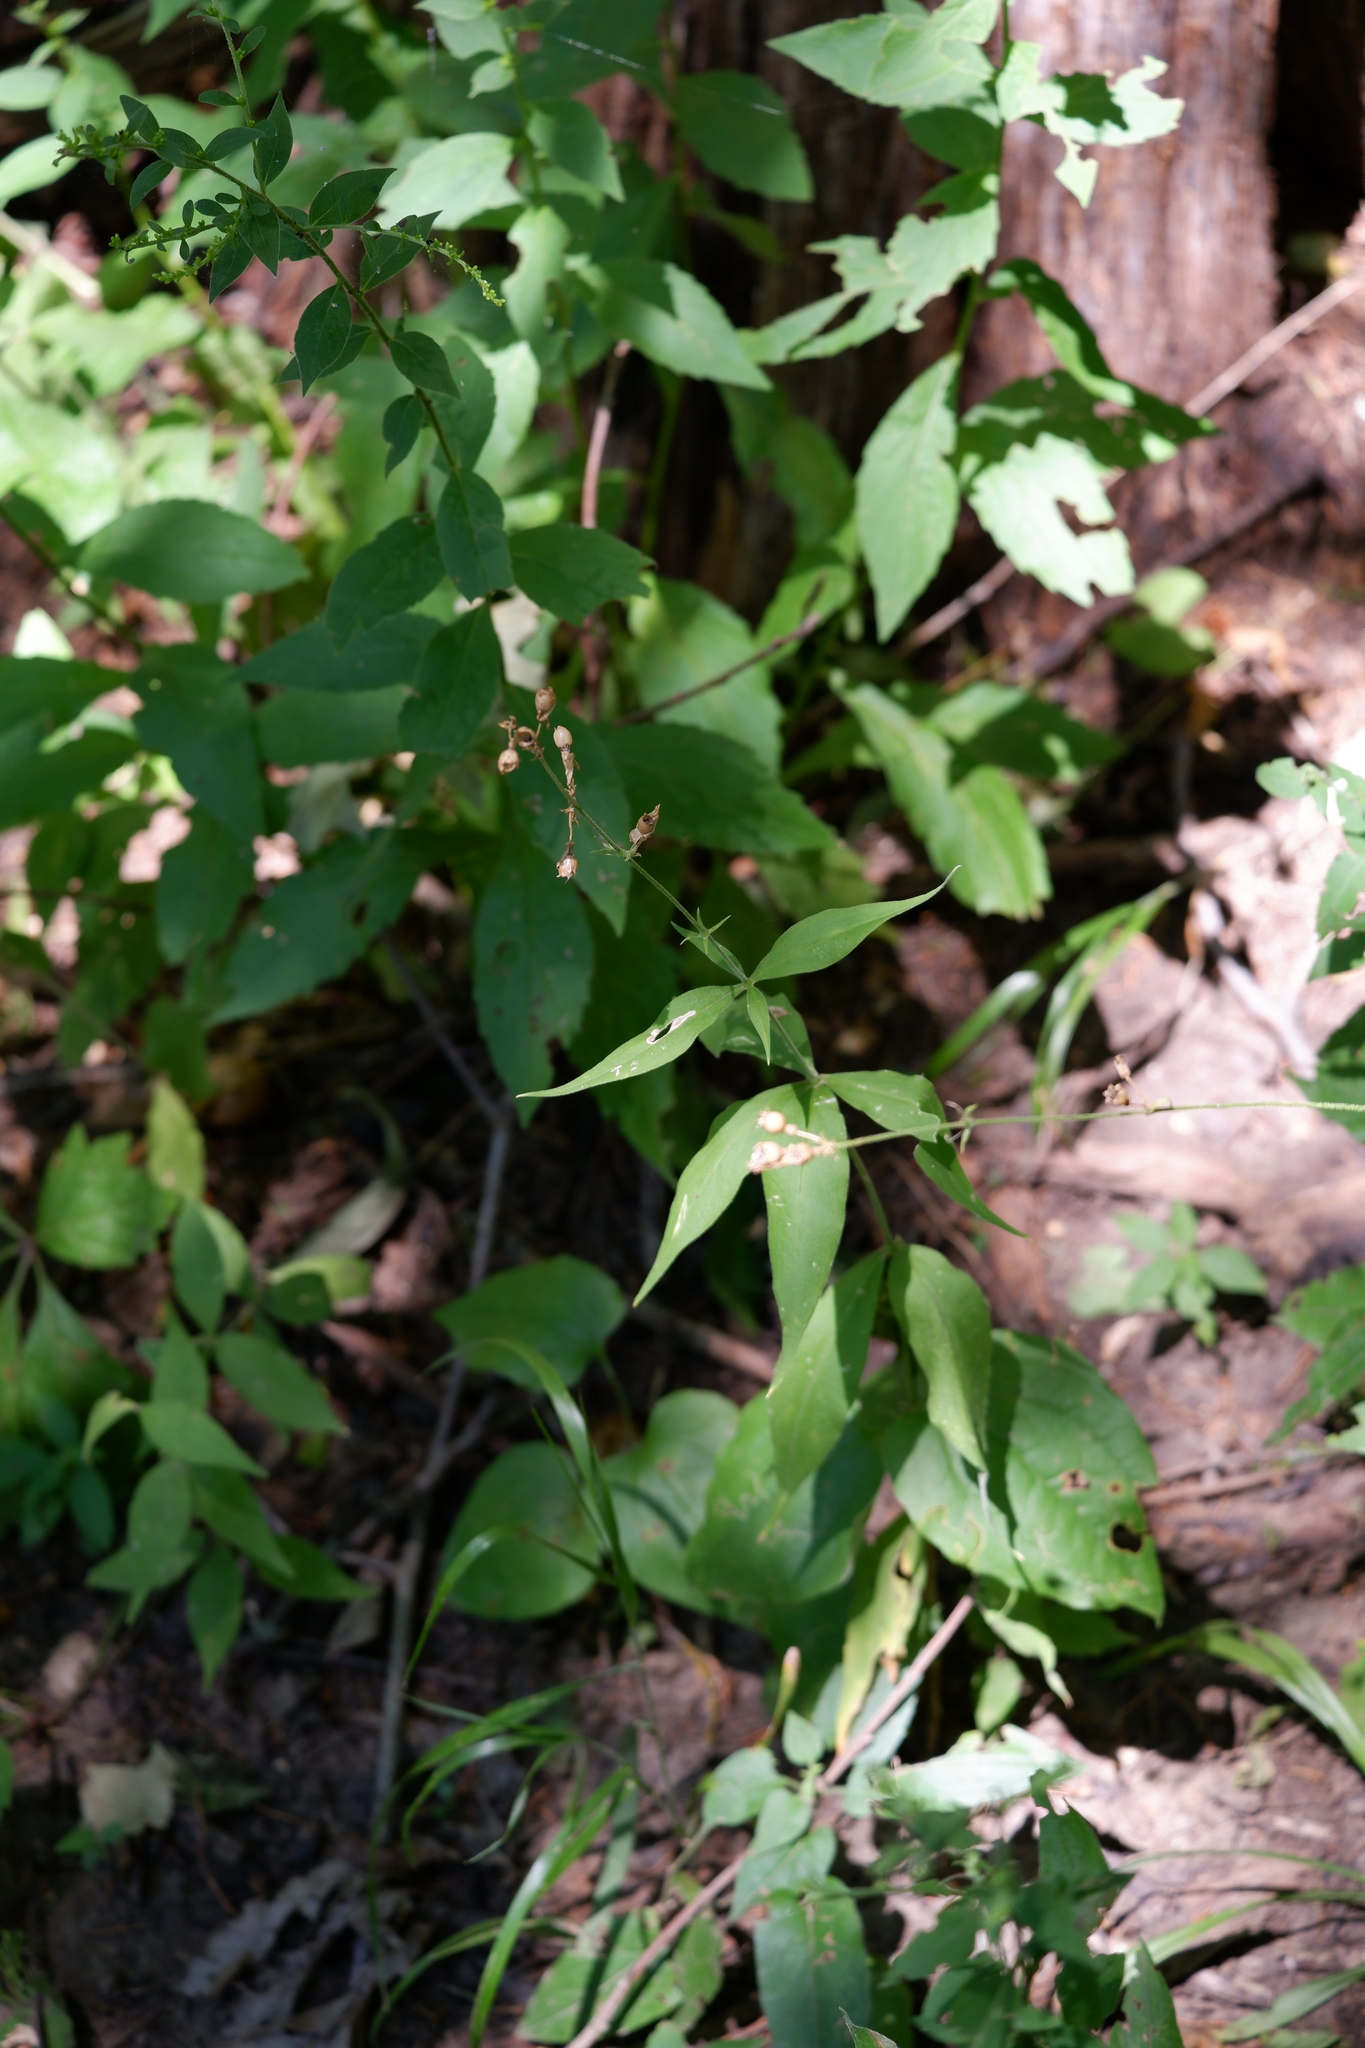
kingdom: Plantae
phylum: Tracheophyta
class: Magnoliopsida
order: Caryophyllales
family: Caryophyllaceae
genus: Silene
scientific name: Silene stellata
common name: Starry campion
